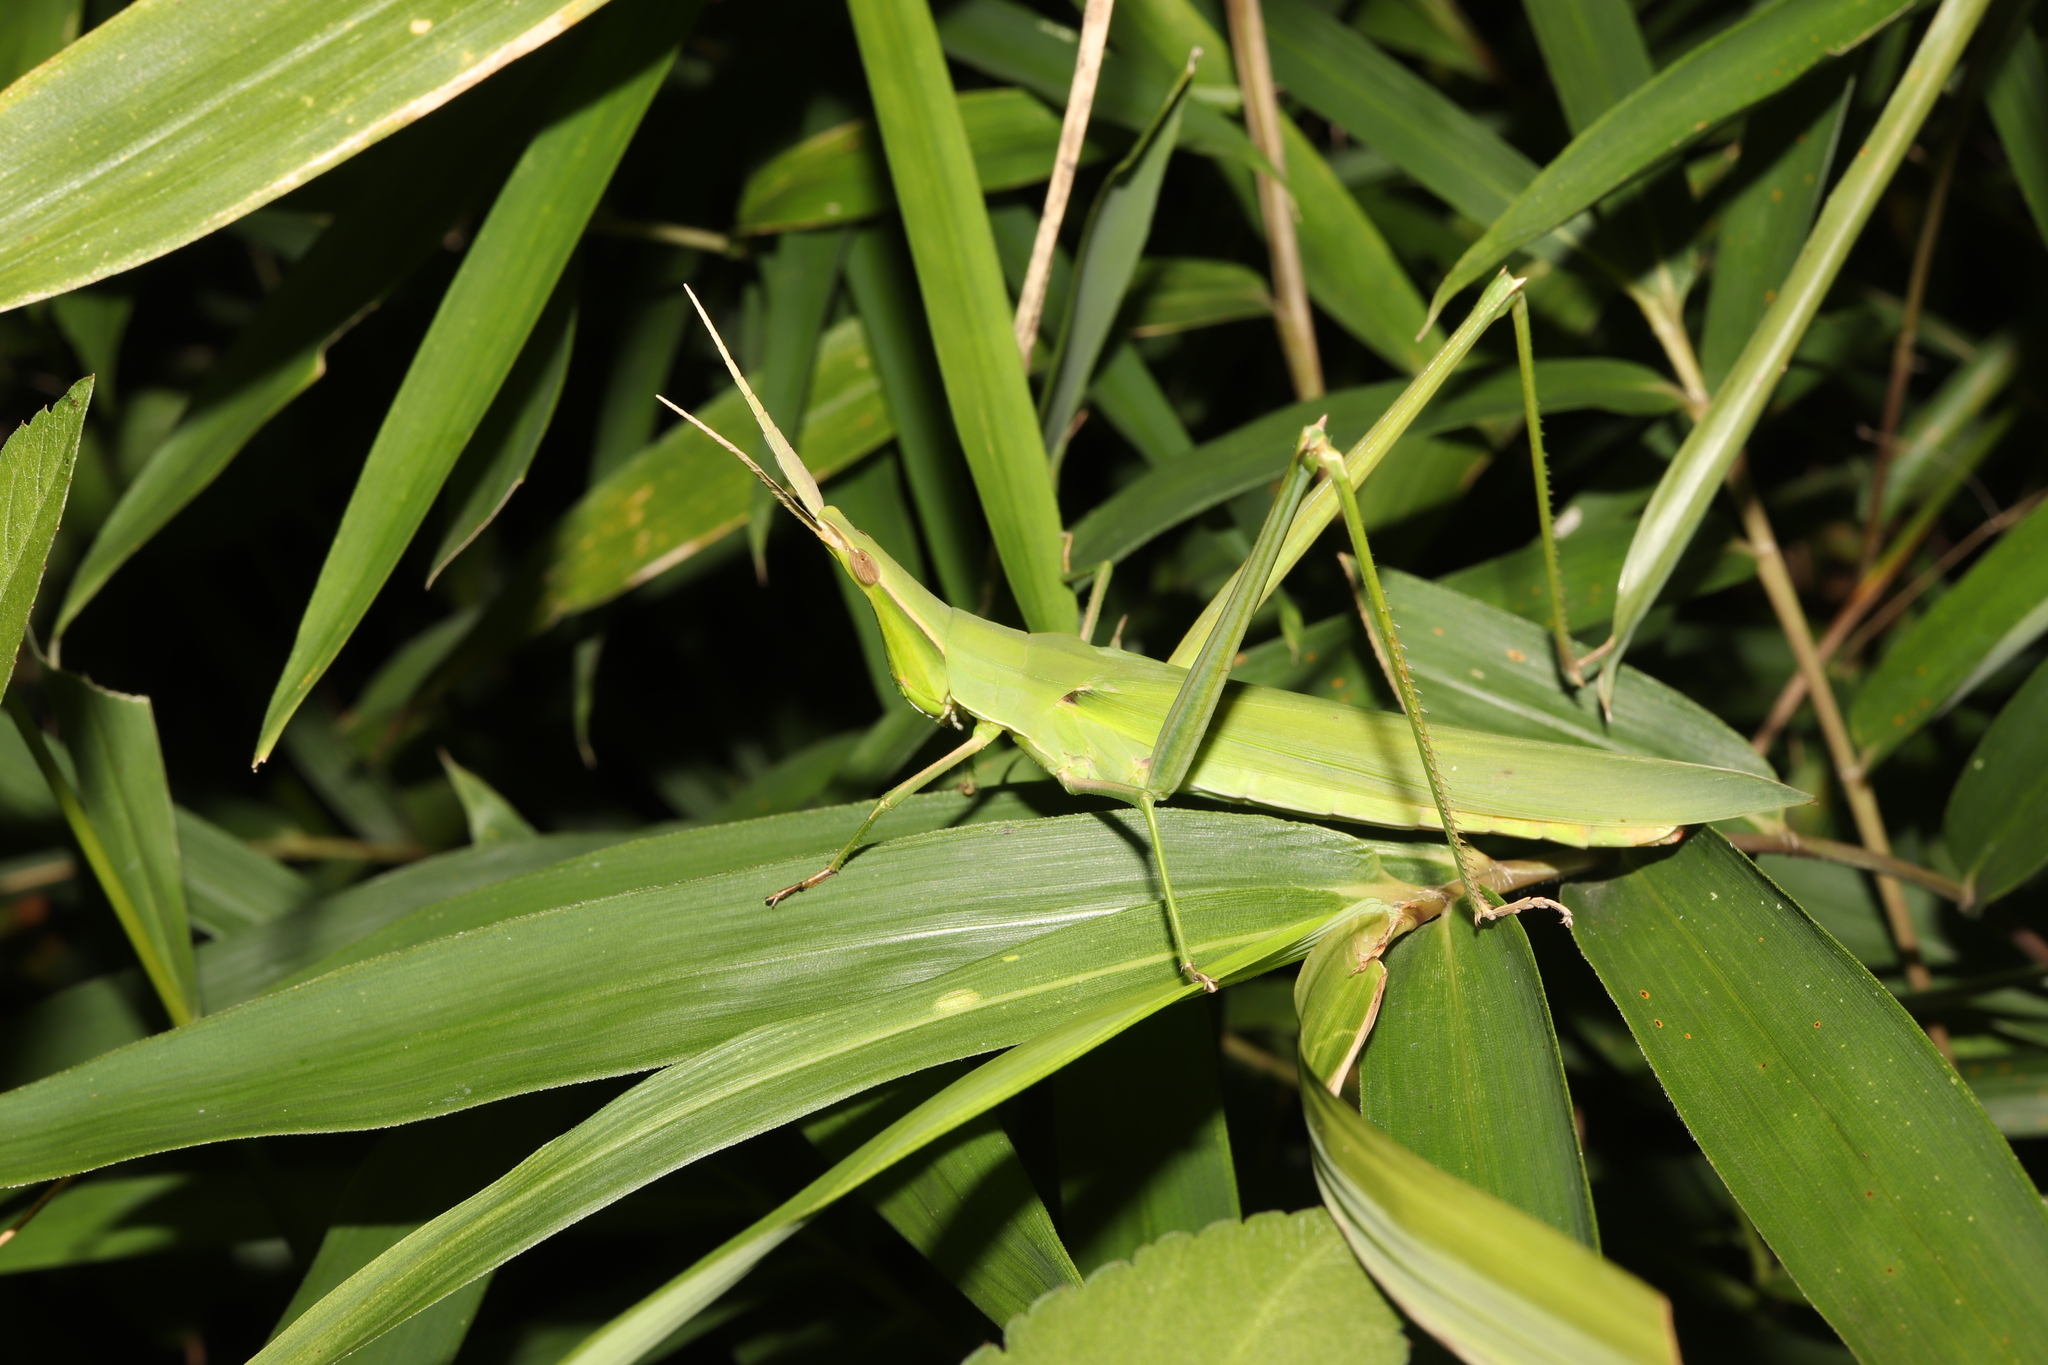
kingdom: Animalia
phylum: Arthropoda
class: Insecta
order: Orthoptera
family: Acrididae
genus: Acrida
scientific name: Acrida cinerea
